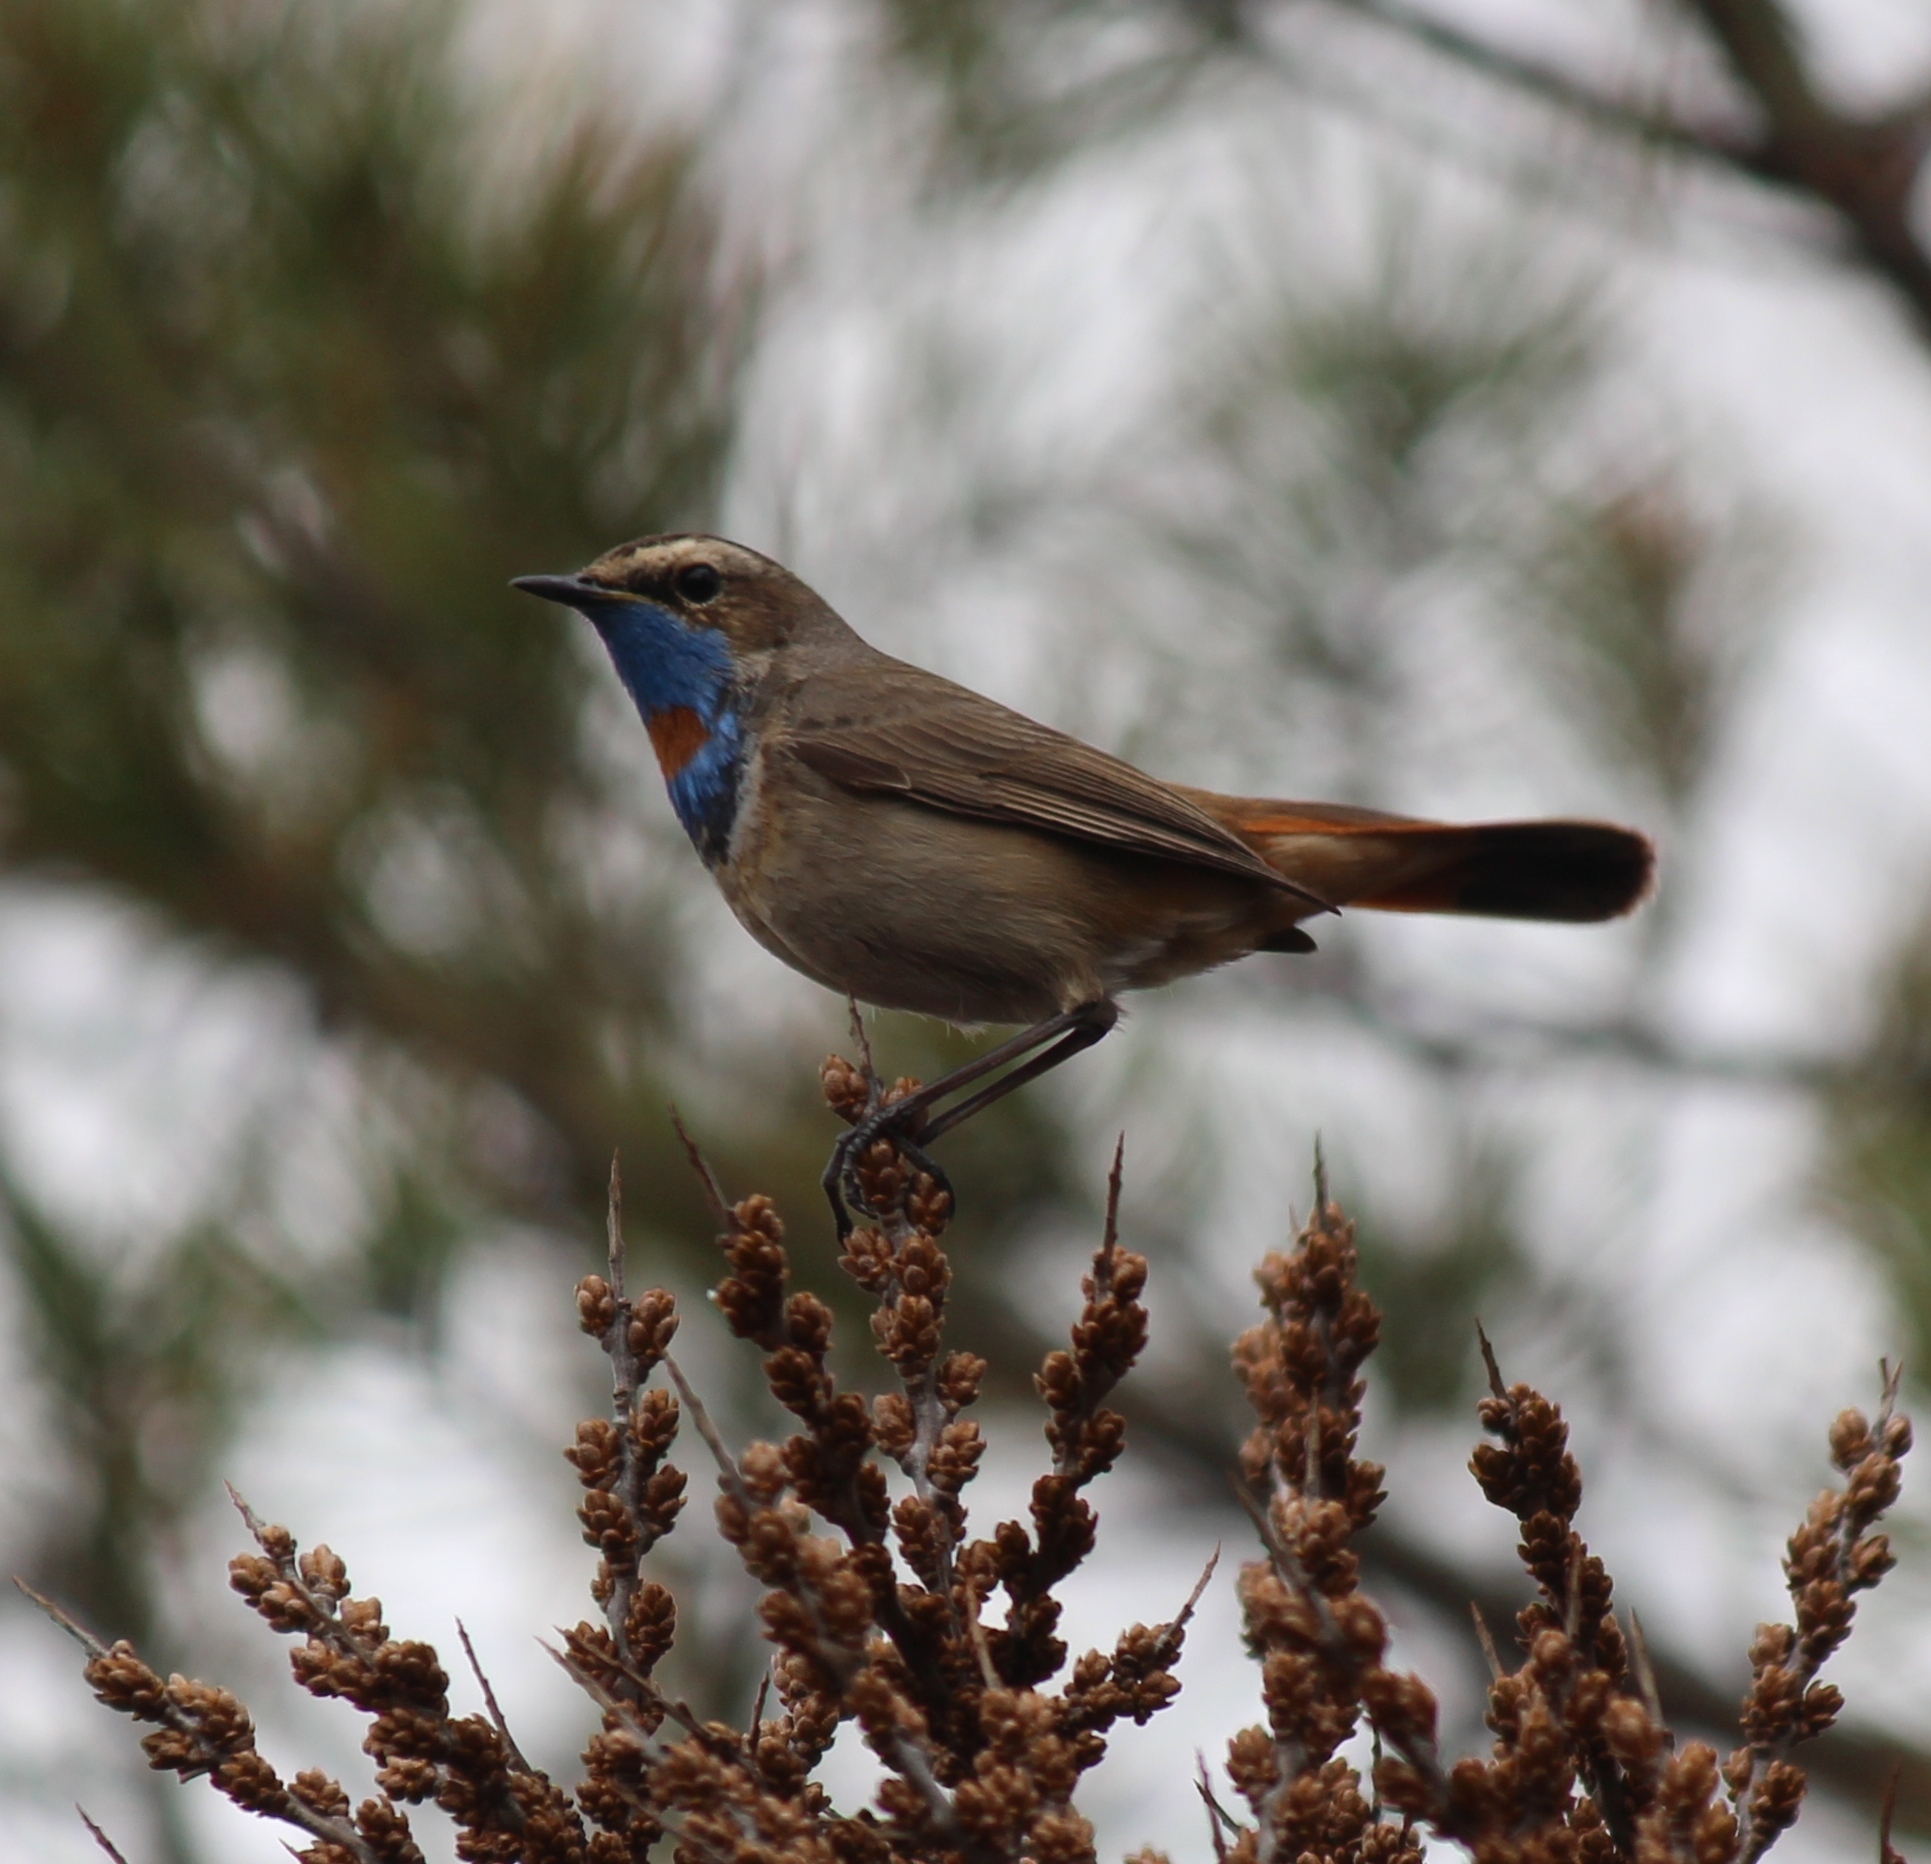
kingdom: Animalia
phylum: Chordata
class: Aves
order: Passeriformes
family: Muscicapidae
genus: Luscinia
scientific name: Luscinia svecica
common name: Bluethroat
